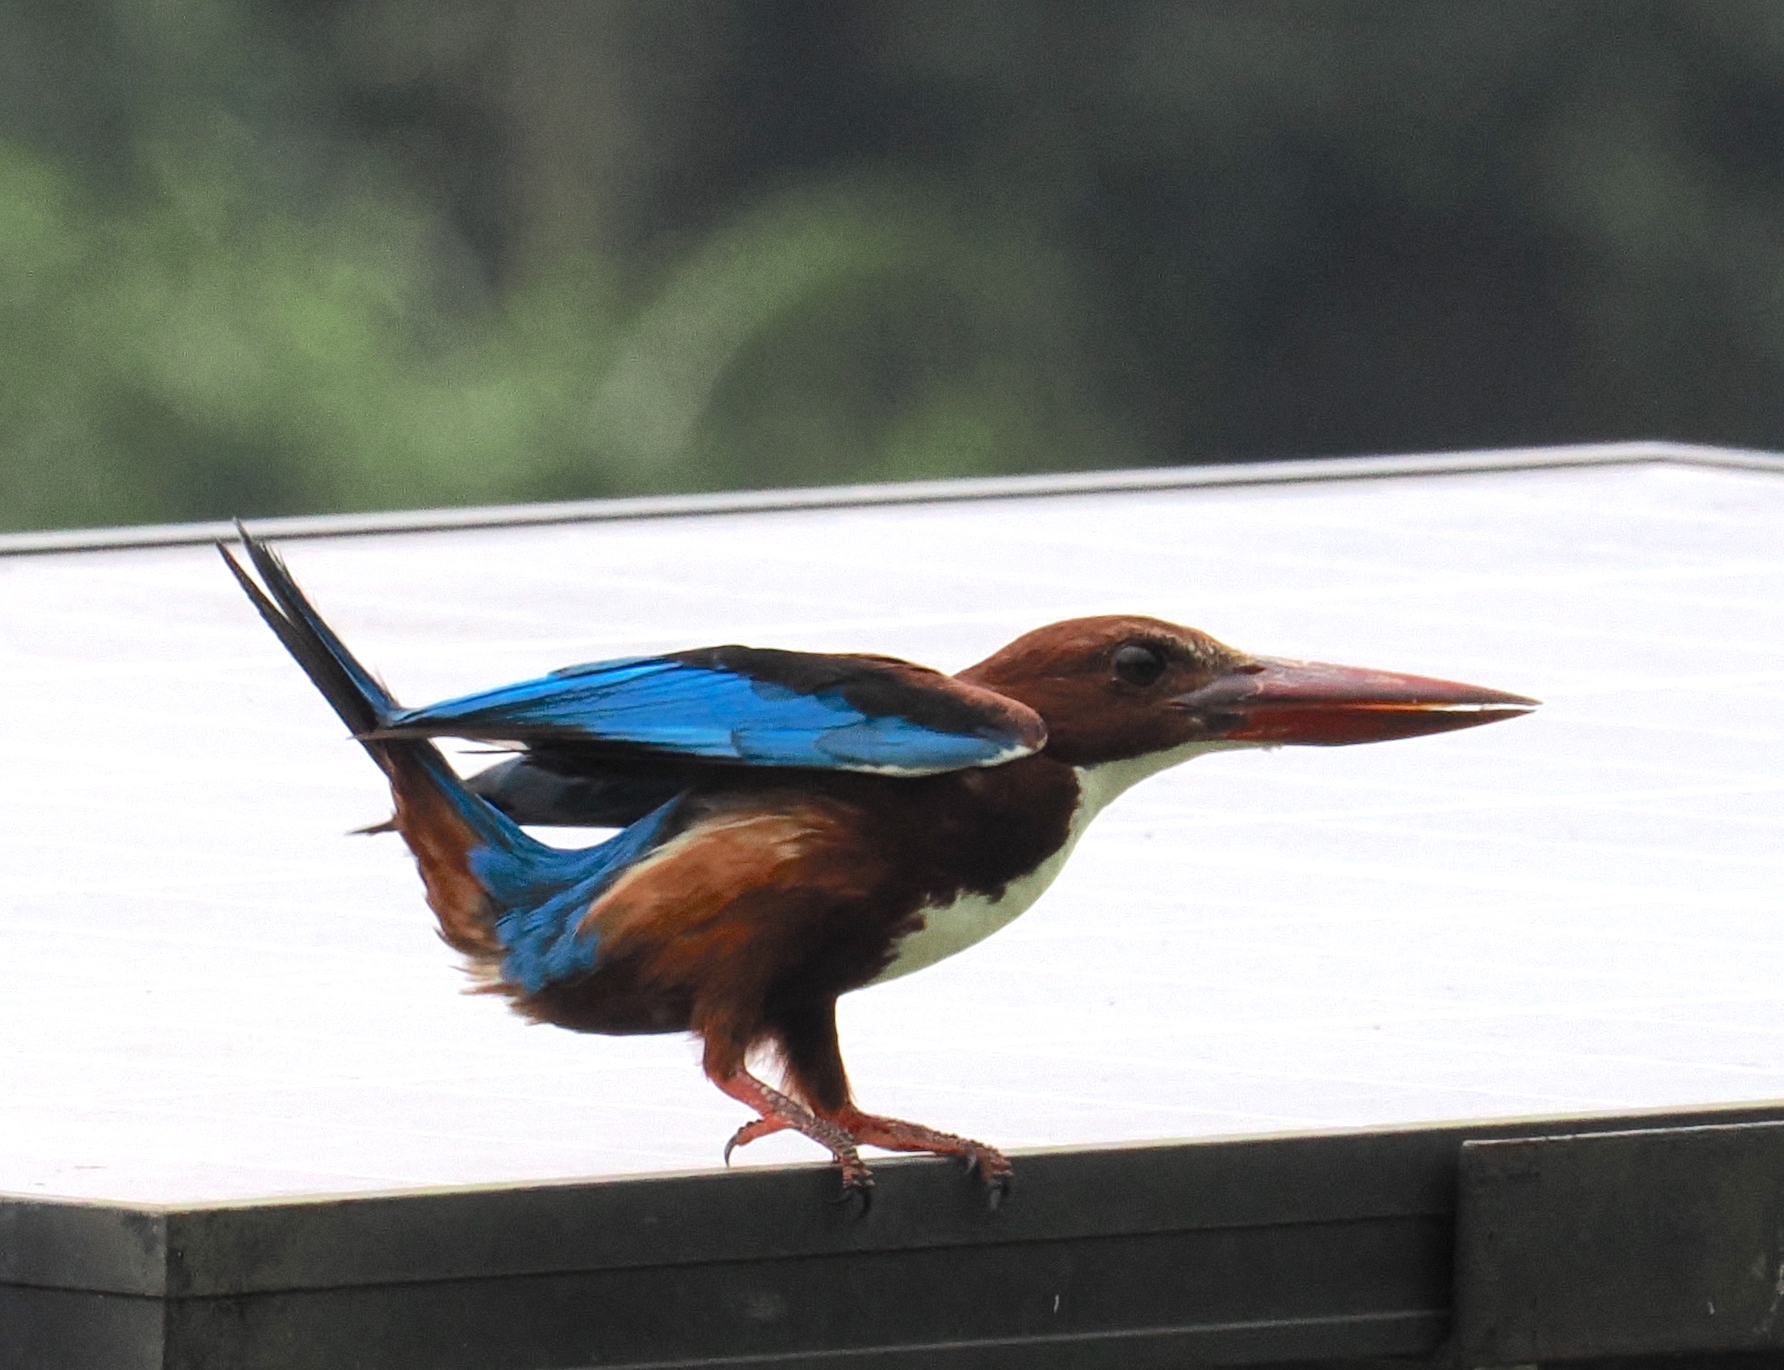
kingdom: Animalia
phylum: Chordata
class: Aves
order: Coraciiformes
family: Alcedinidae
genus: Halcyon
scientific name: Halcyon smyrnensis
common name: White-throated kingfisher
